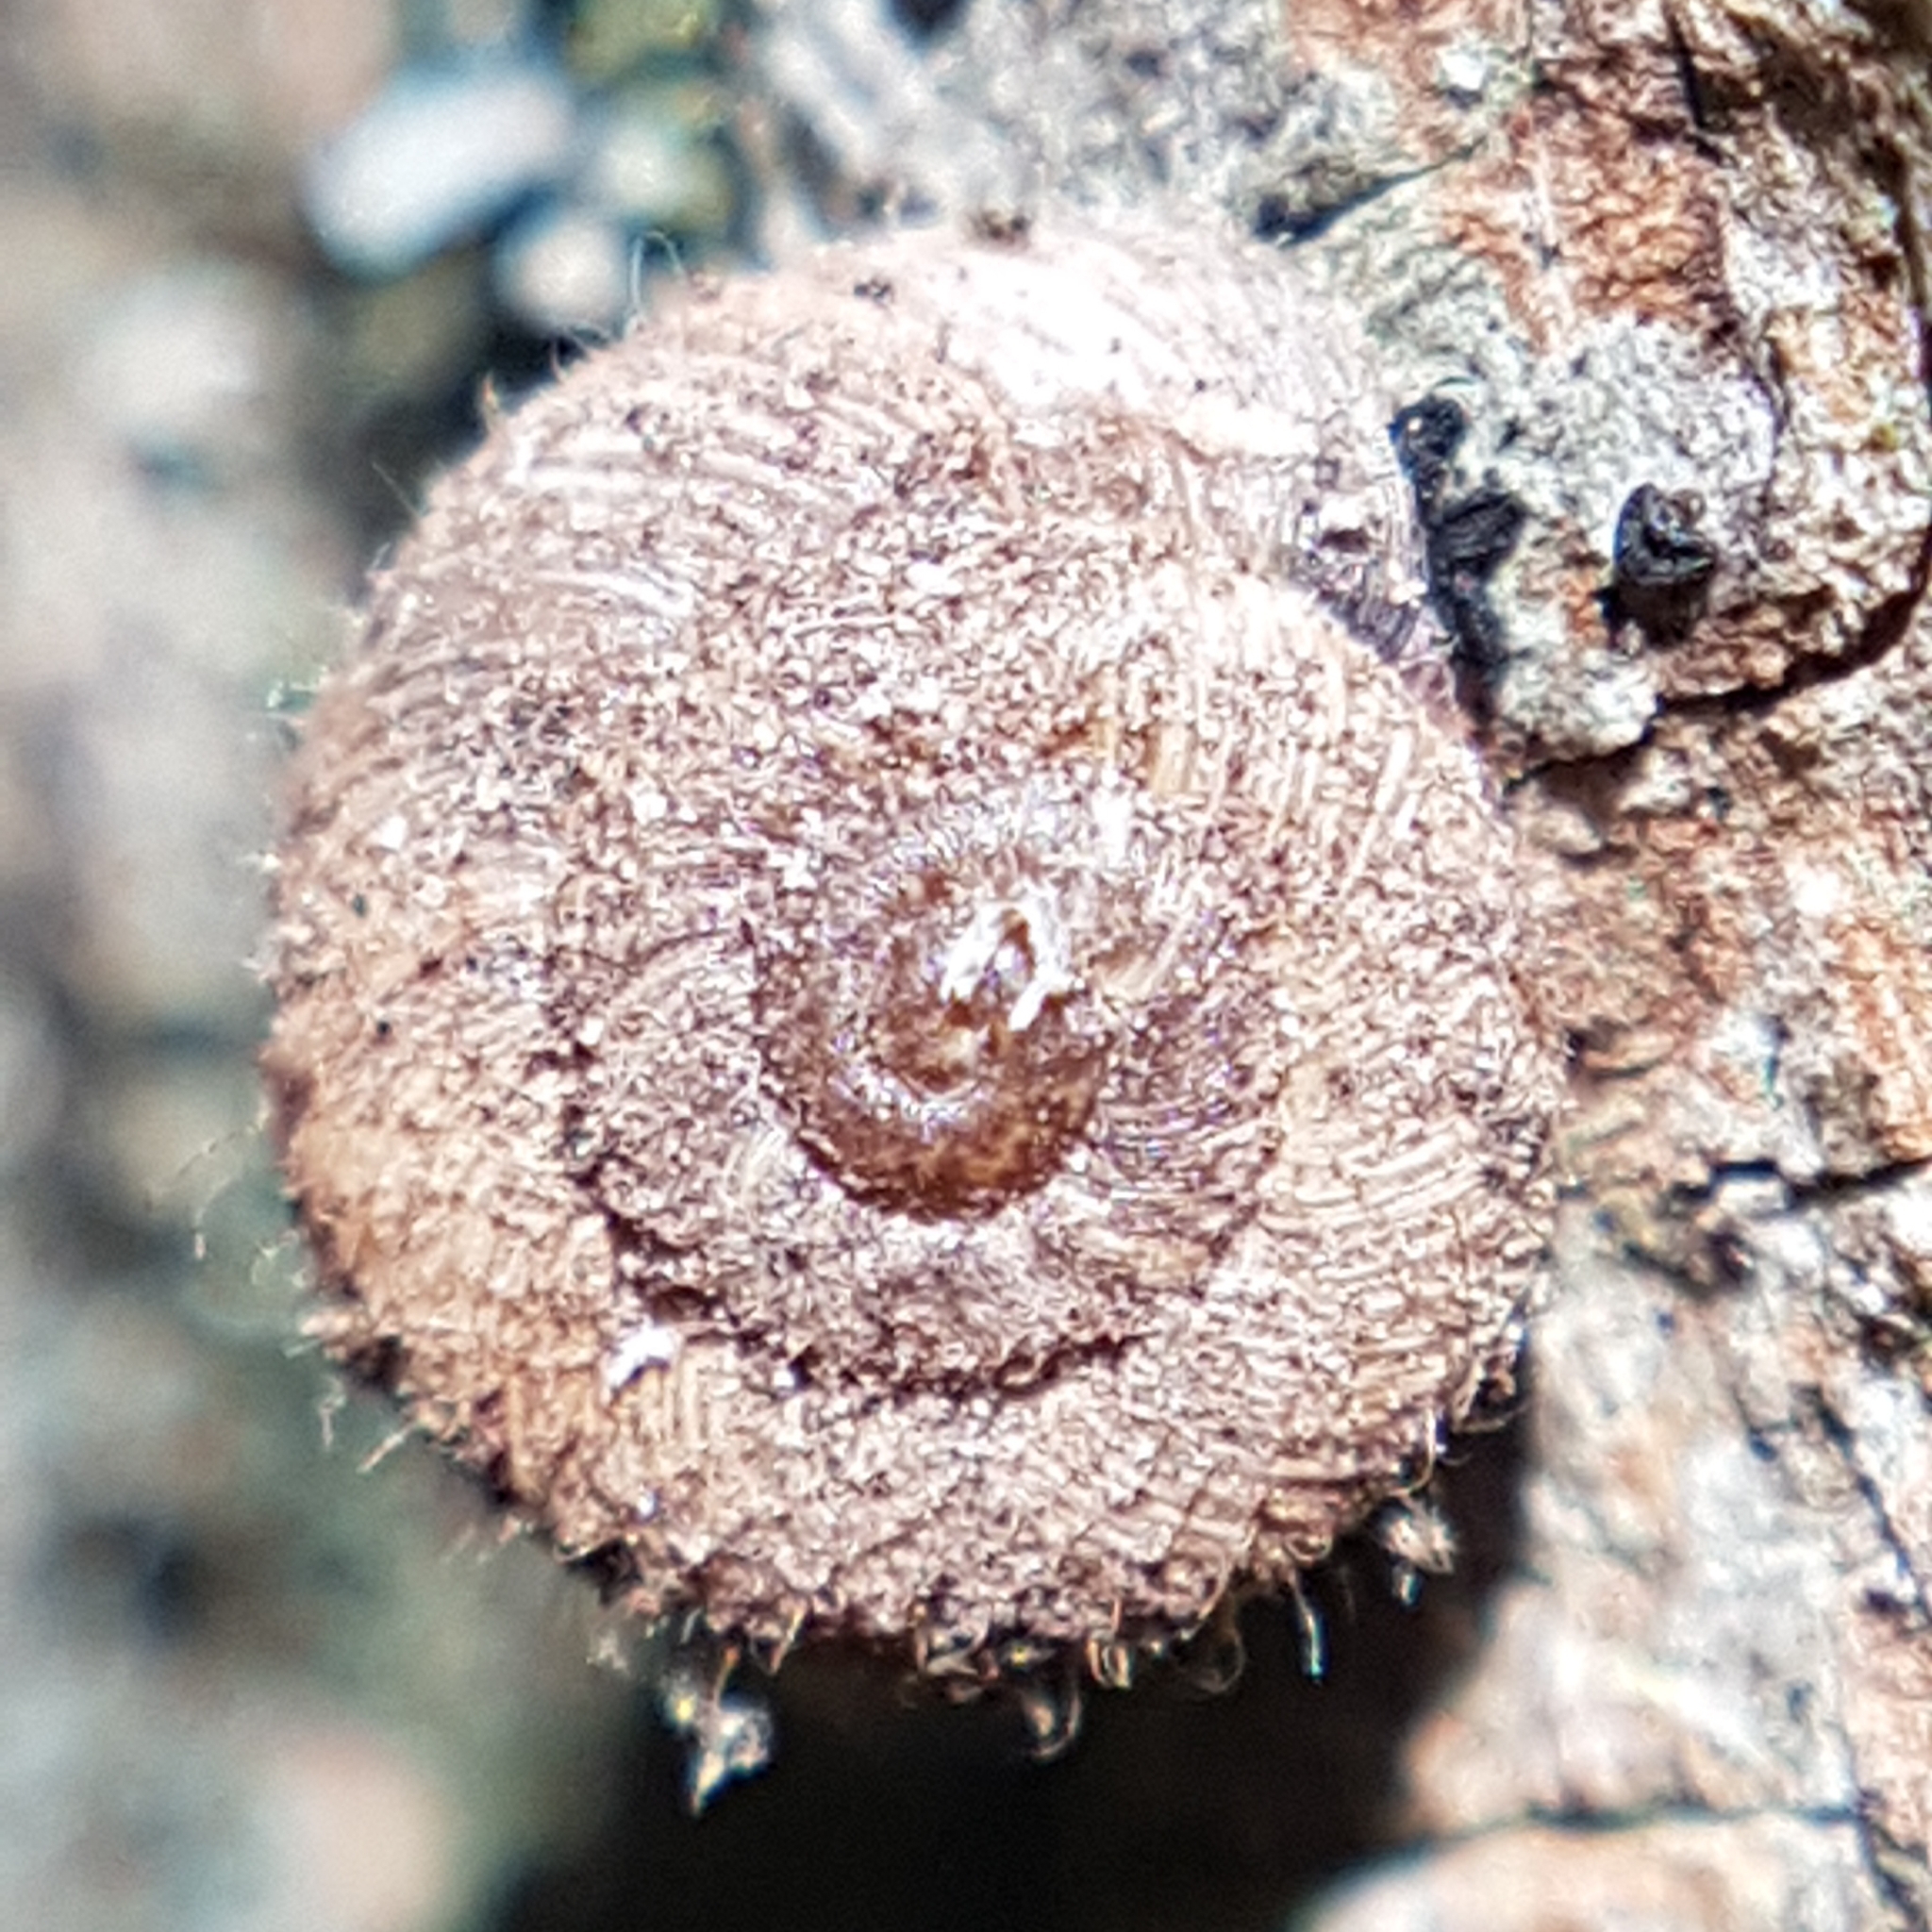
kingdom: Animalia
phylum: Mollusca
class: Gastropoda
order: Stylommatophora
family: Geomitridae
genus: Xerotricha
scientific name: Xerotricha conspurcata
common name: Snail
